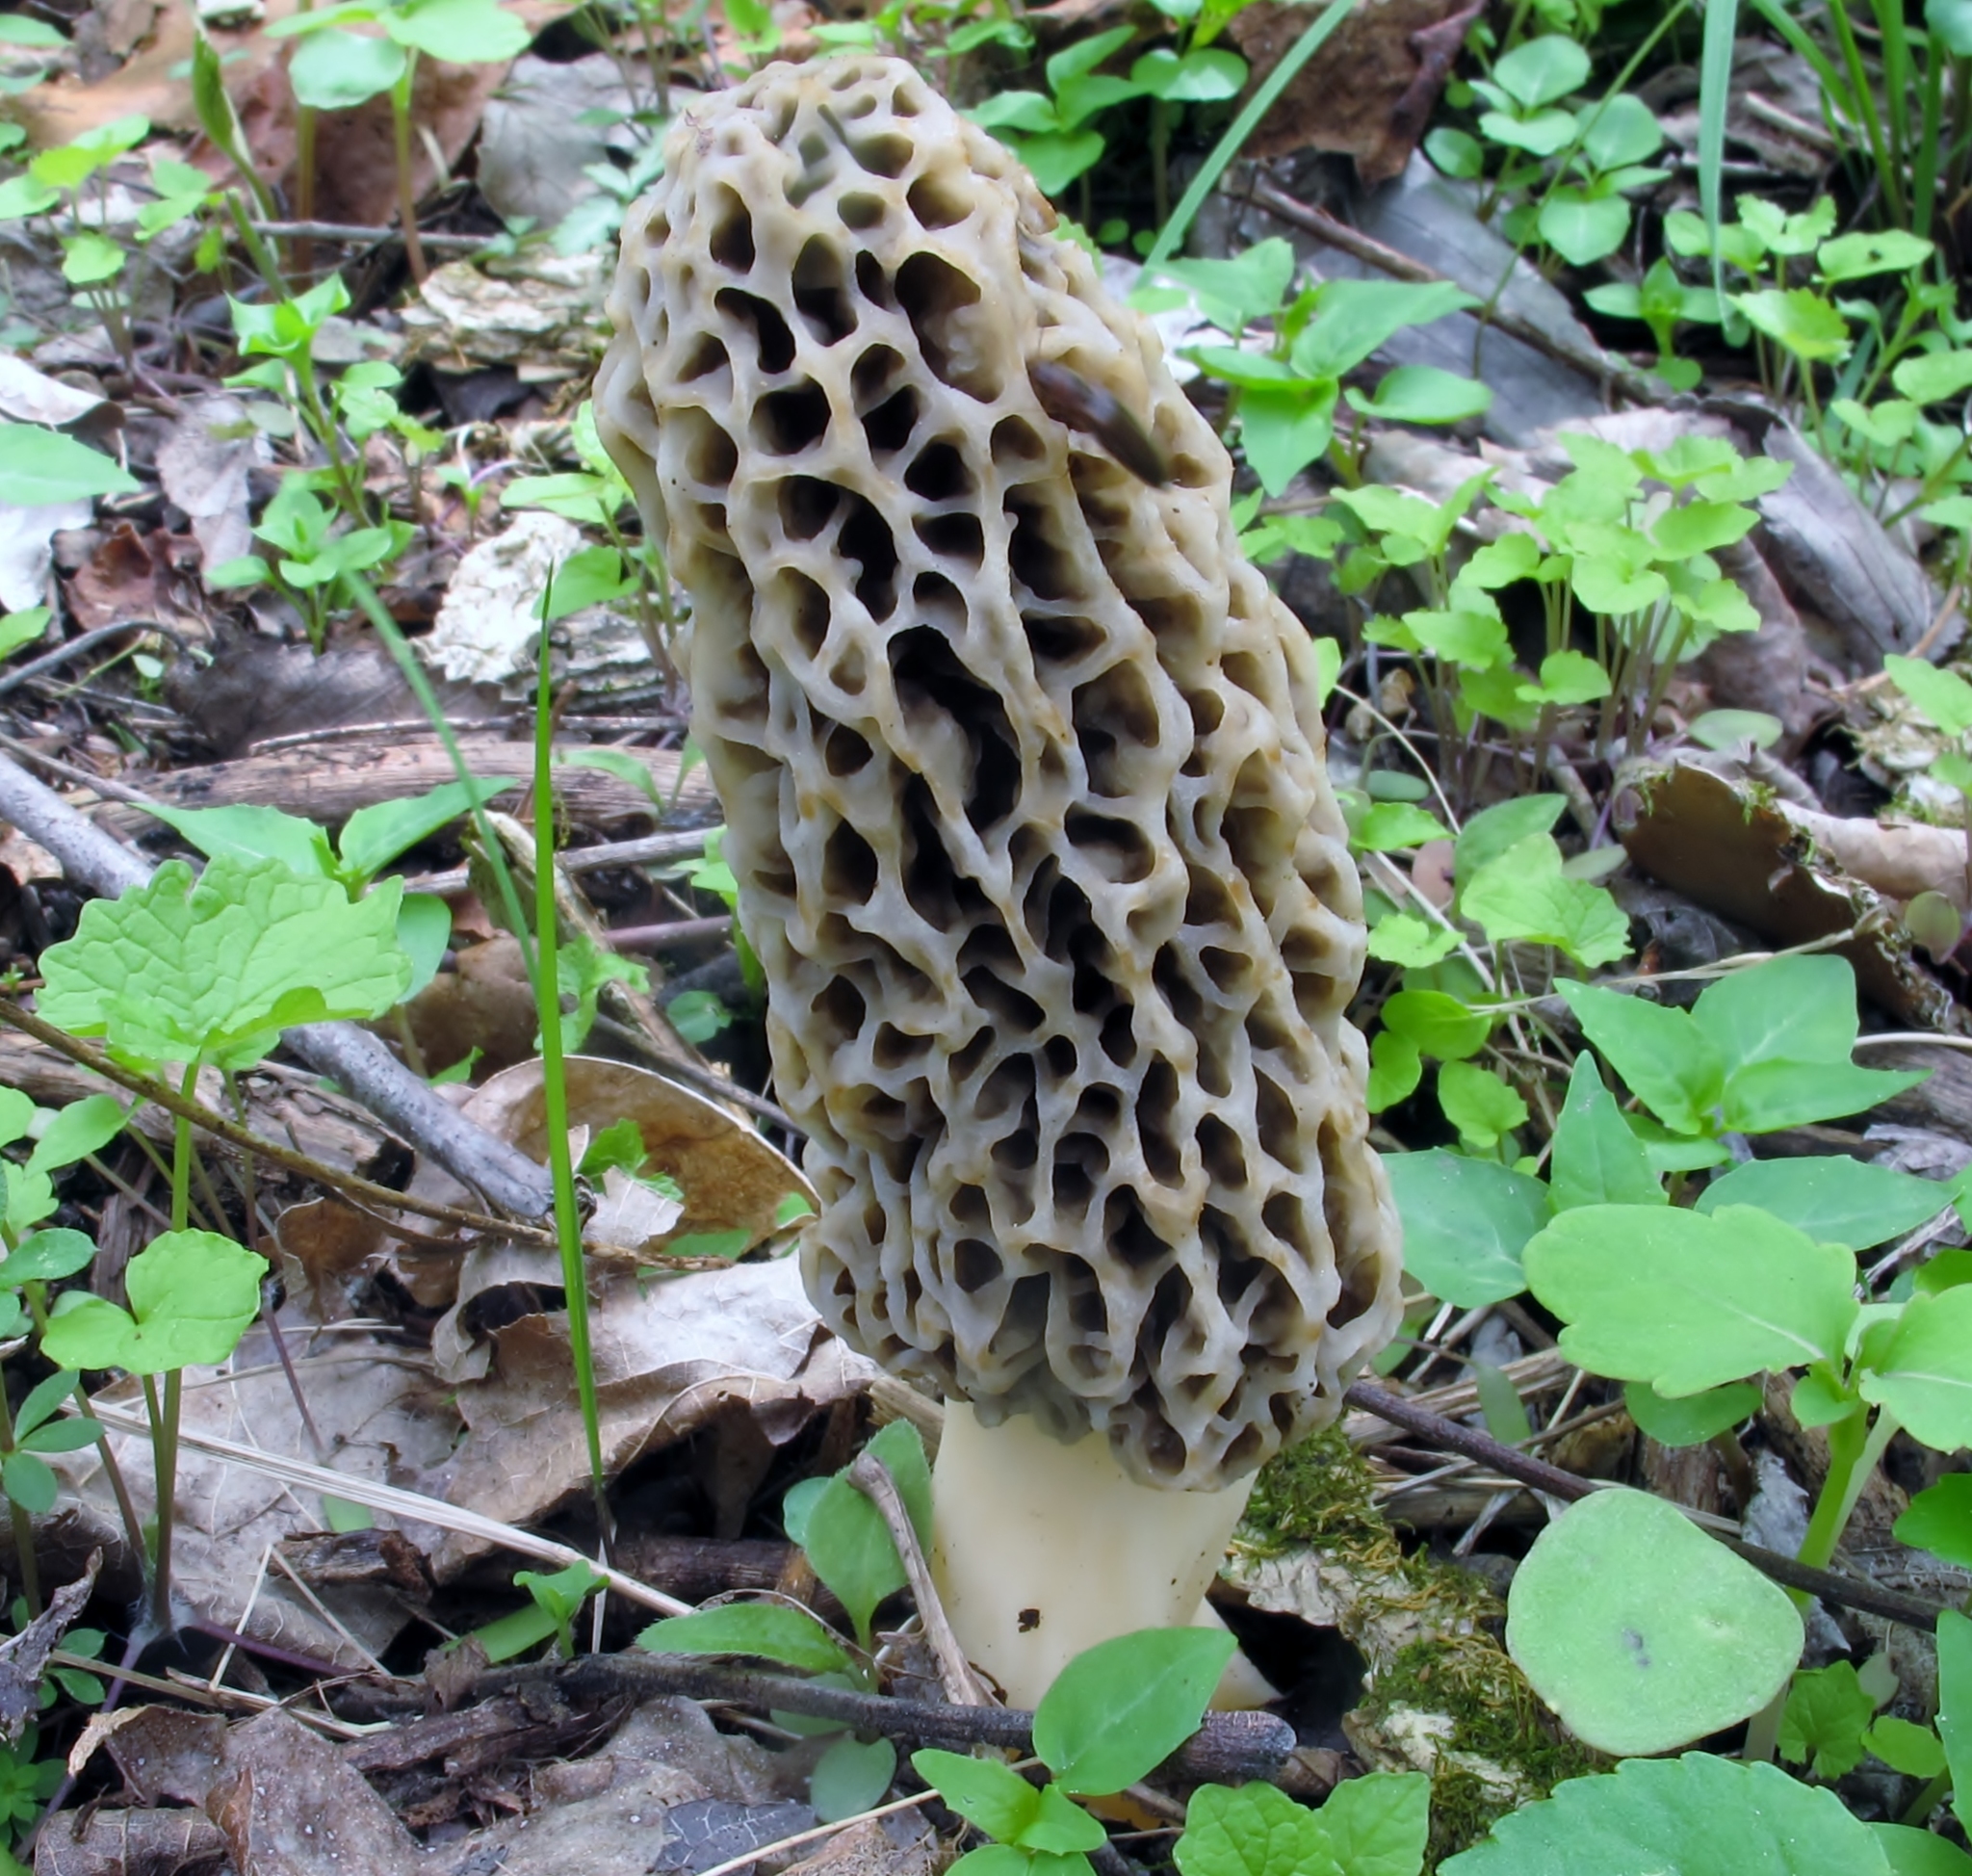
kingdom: Fungi
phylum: Ascomycota
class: Pezizomycetes
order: Pezizales
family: Morchellaceae
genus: Morchella
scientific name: Morchella americana
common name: White morel
